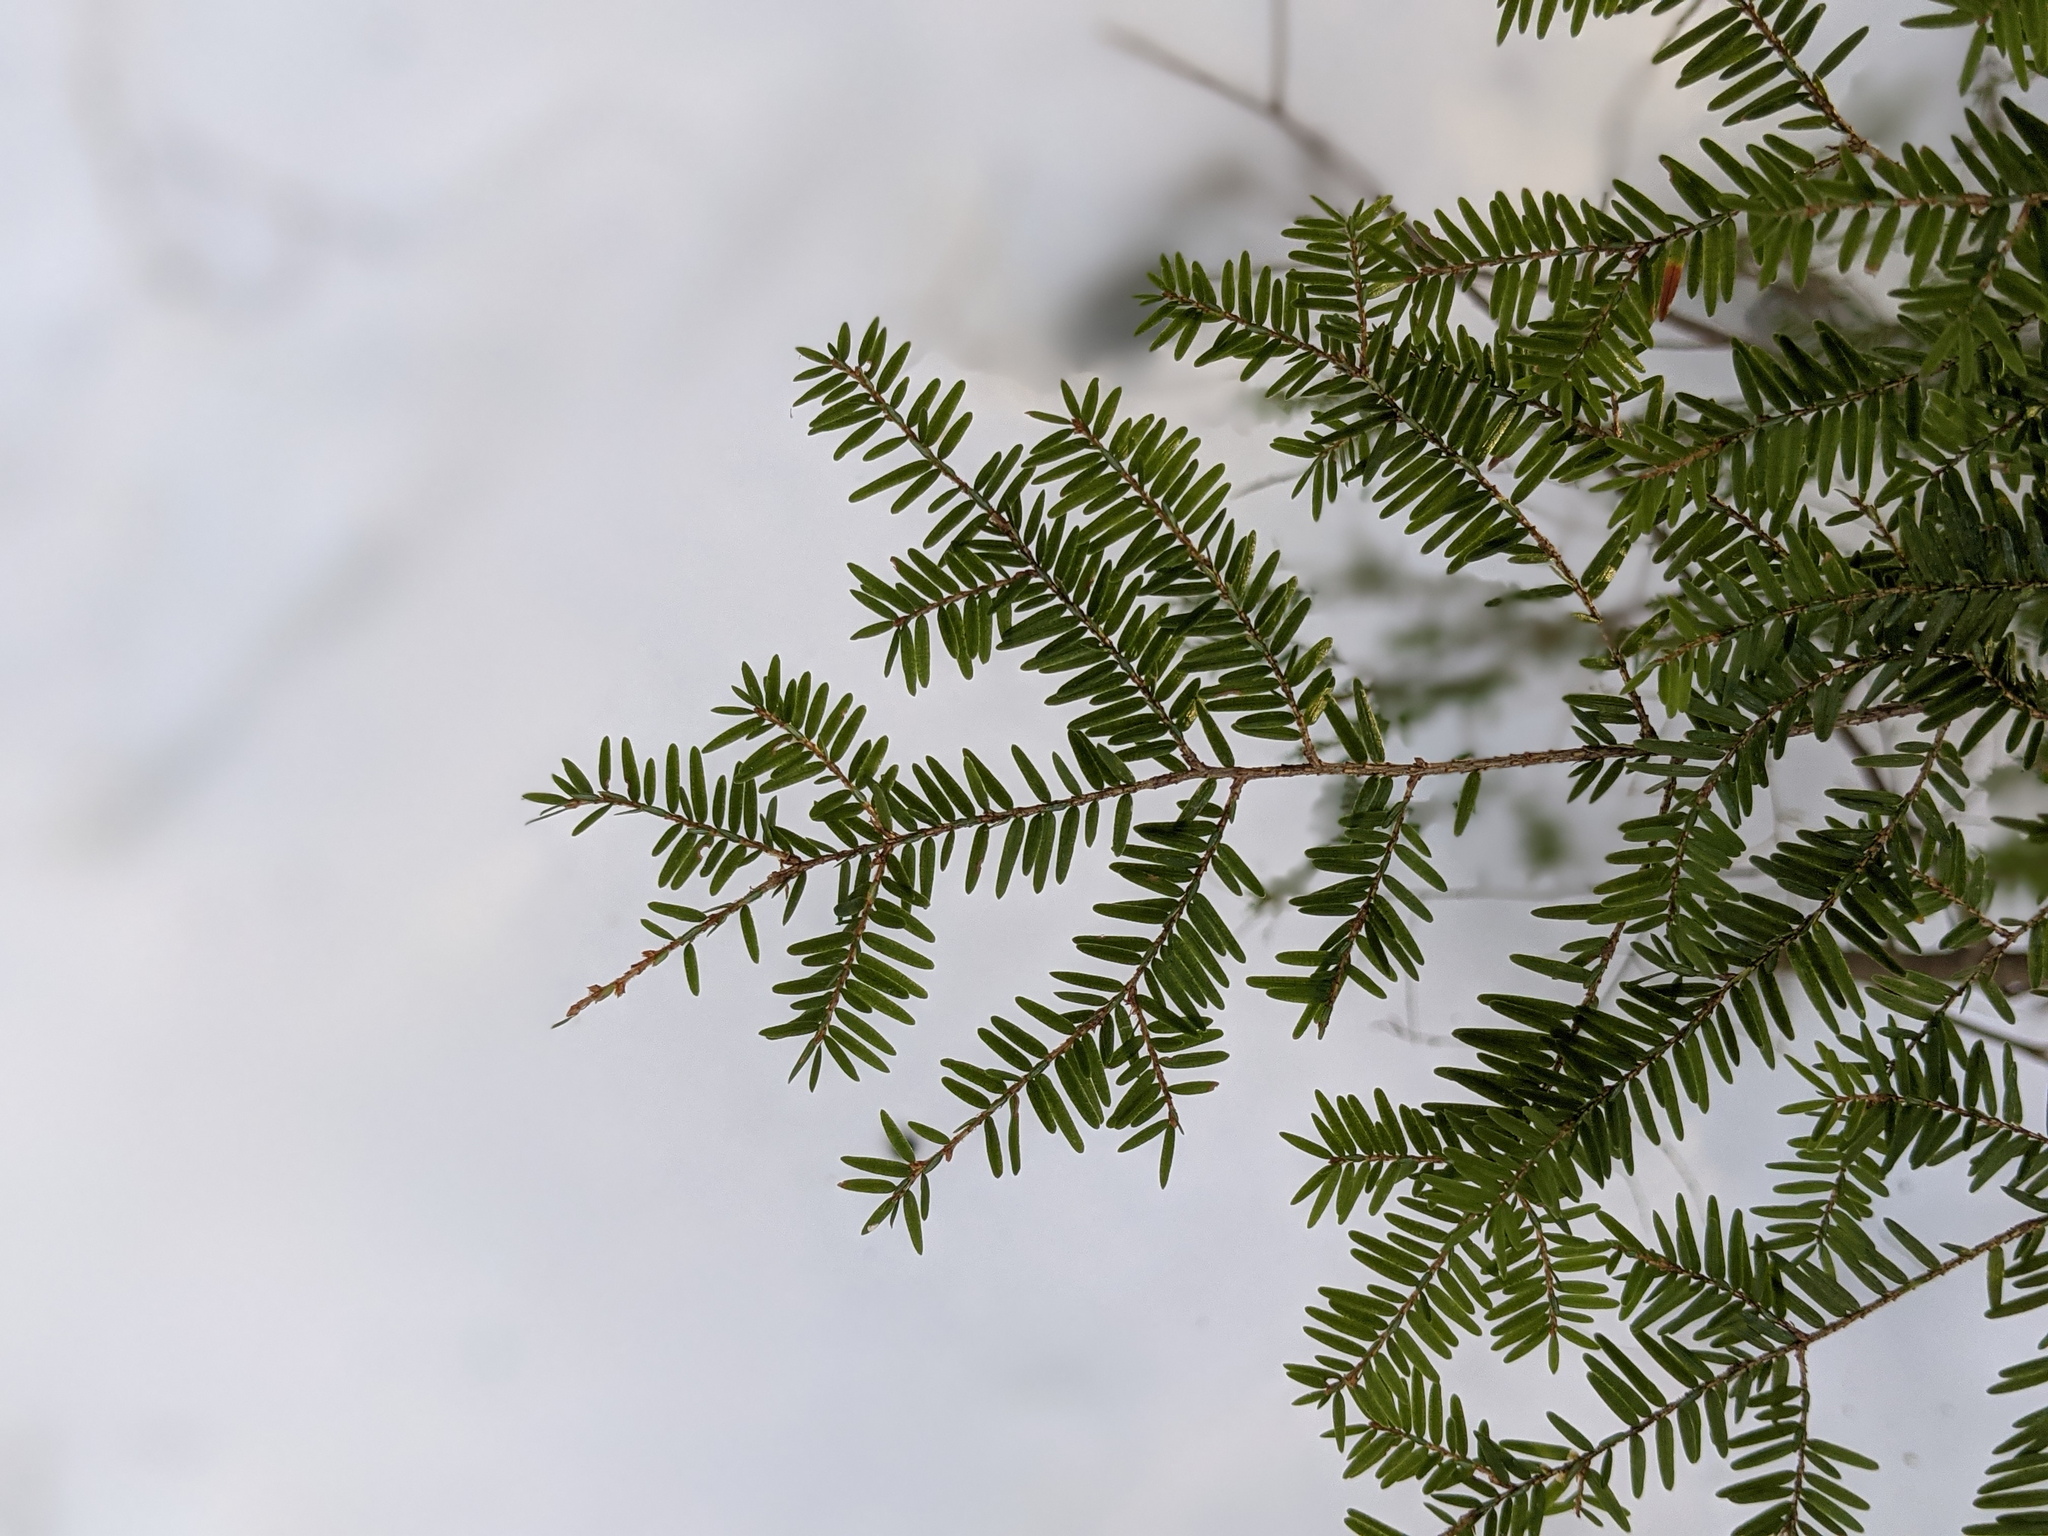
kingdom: Plantae
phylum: Tracheophyta
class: Pinopsida
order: Pinales
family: Pinaceae
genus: Tsuga
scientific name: Tsuga canadensis
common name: Eastern hemlock
